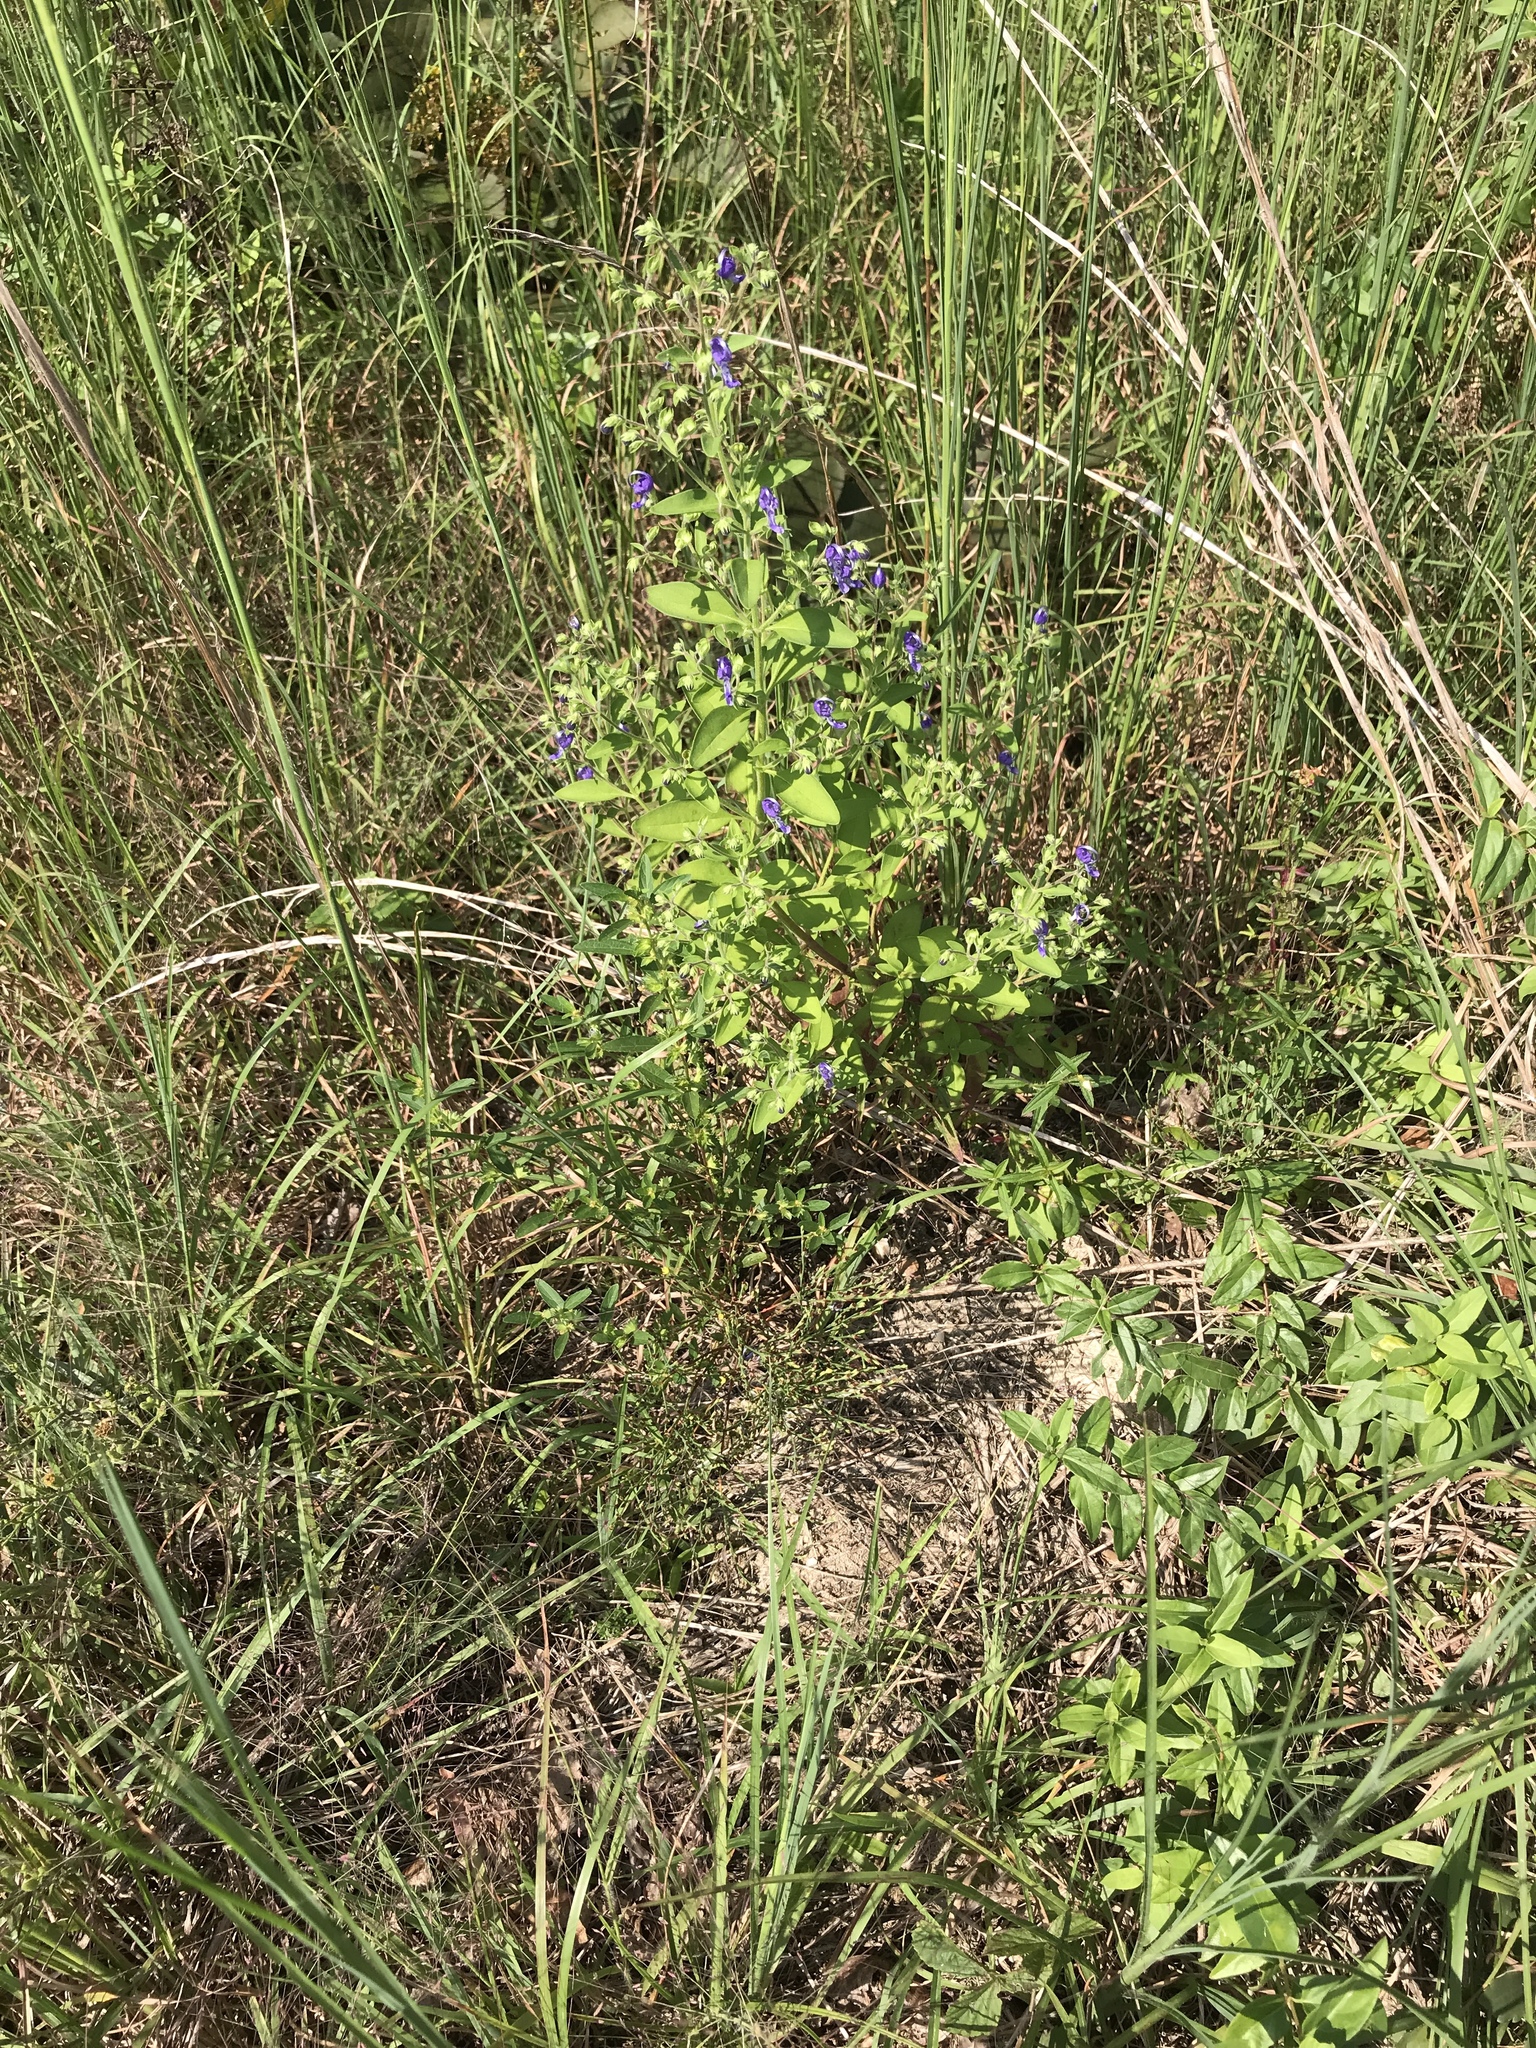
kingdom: Plantae
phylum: Tracheophyta
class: Magnoliopsida
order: Lamiales
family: Lamiaceae
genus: Trichostema
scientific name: Trichostema dichotomum
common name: Bastard pennyroyal
